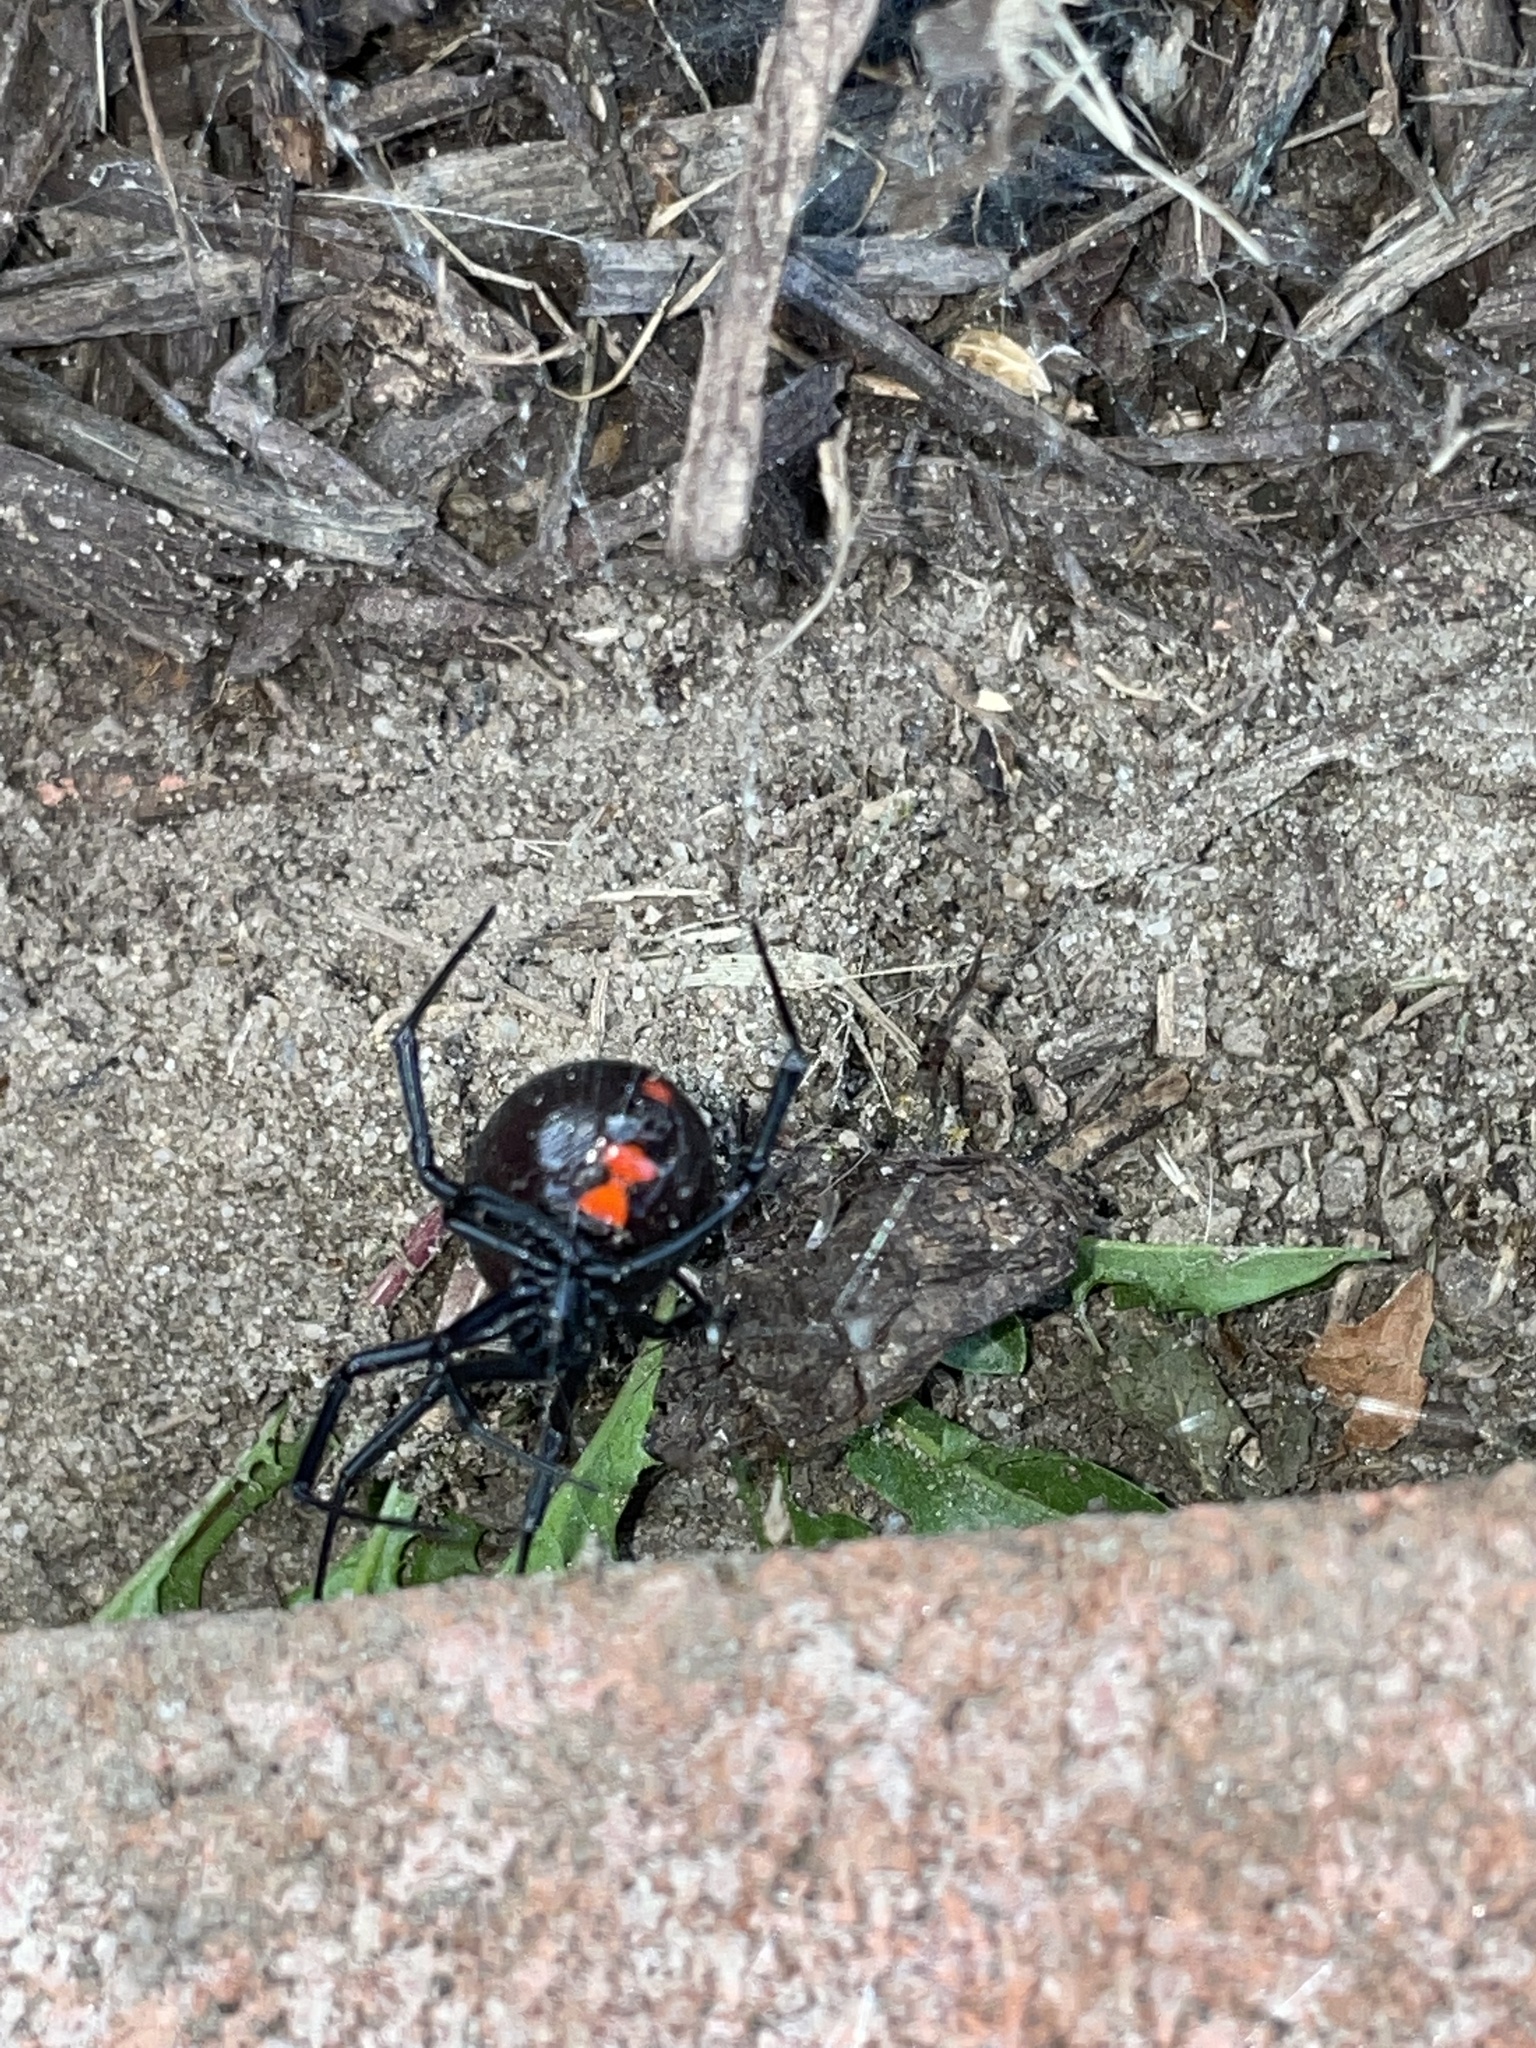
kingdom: Animalia
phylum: Arthropoda
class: Arachnida
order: Araneae
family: Theridiidae
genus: Latrodectus
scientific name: Latrodectus mactans
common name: Cobweb spiders
